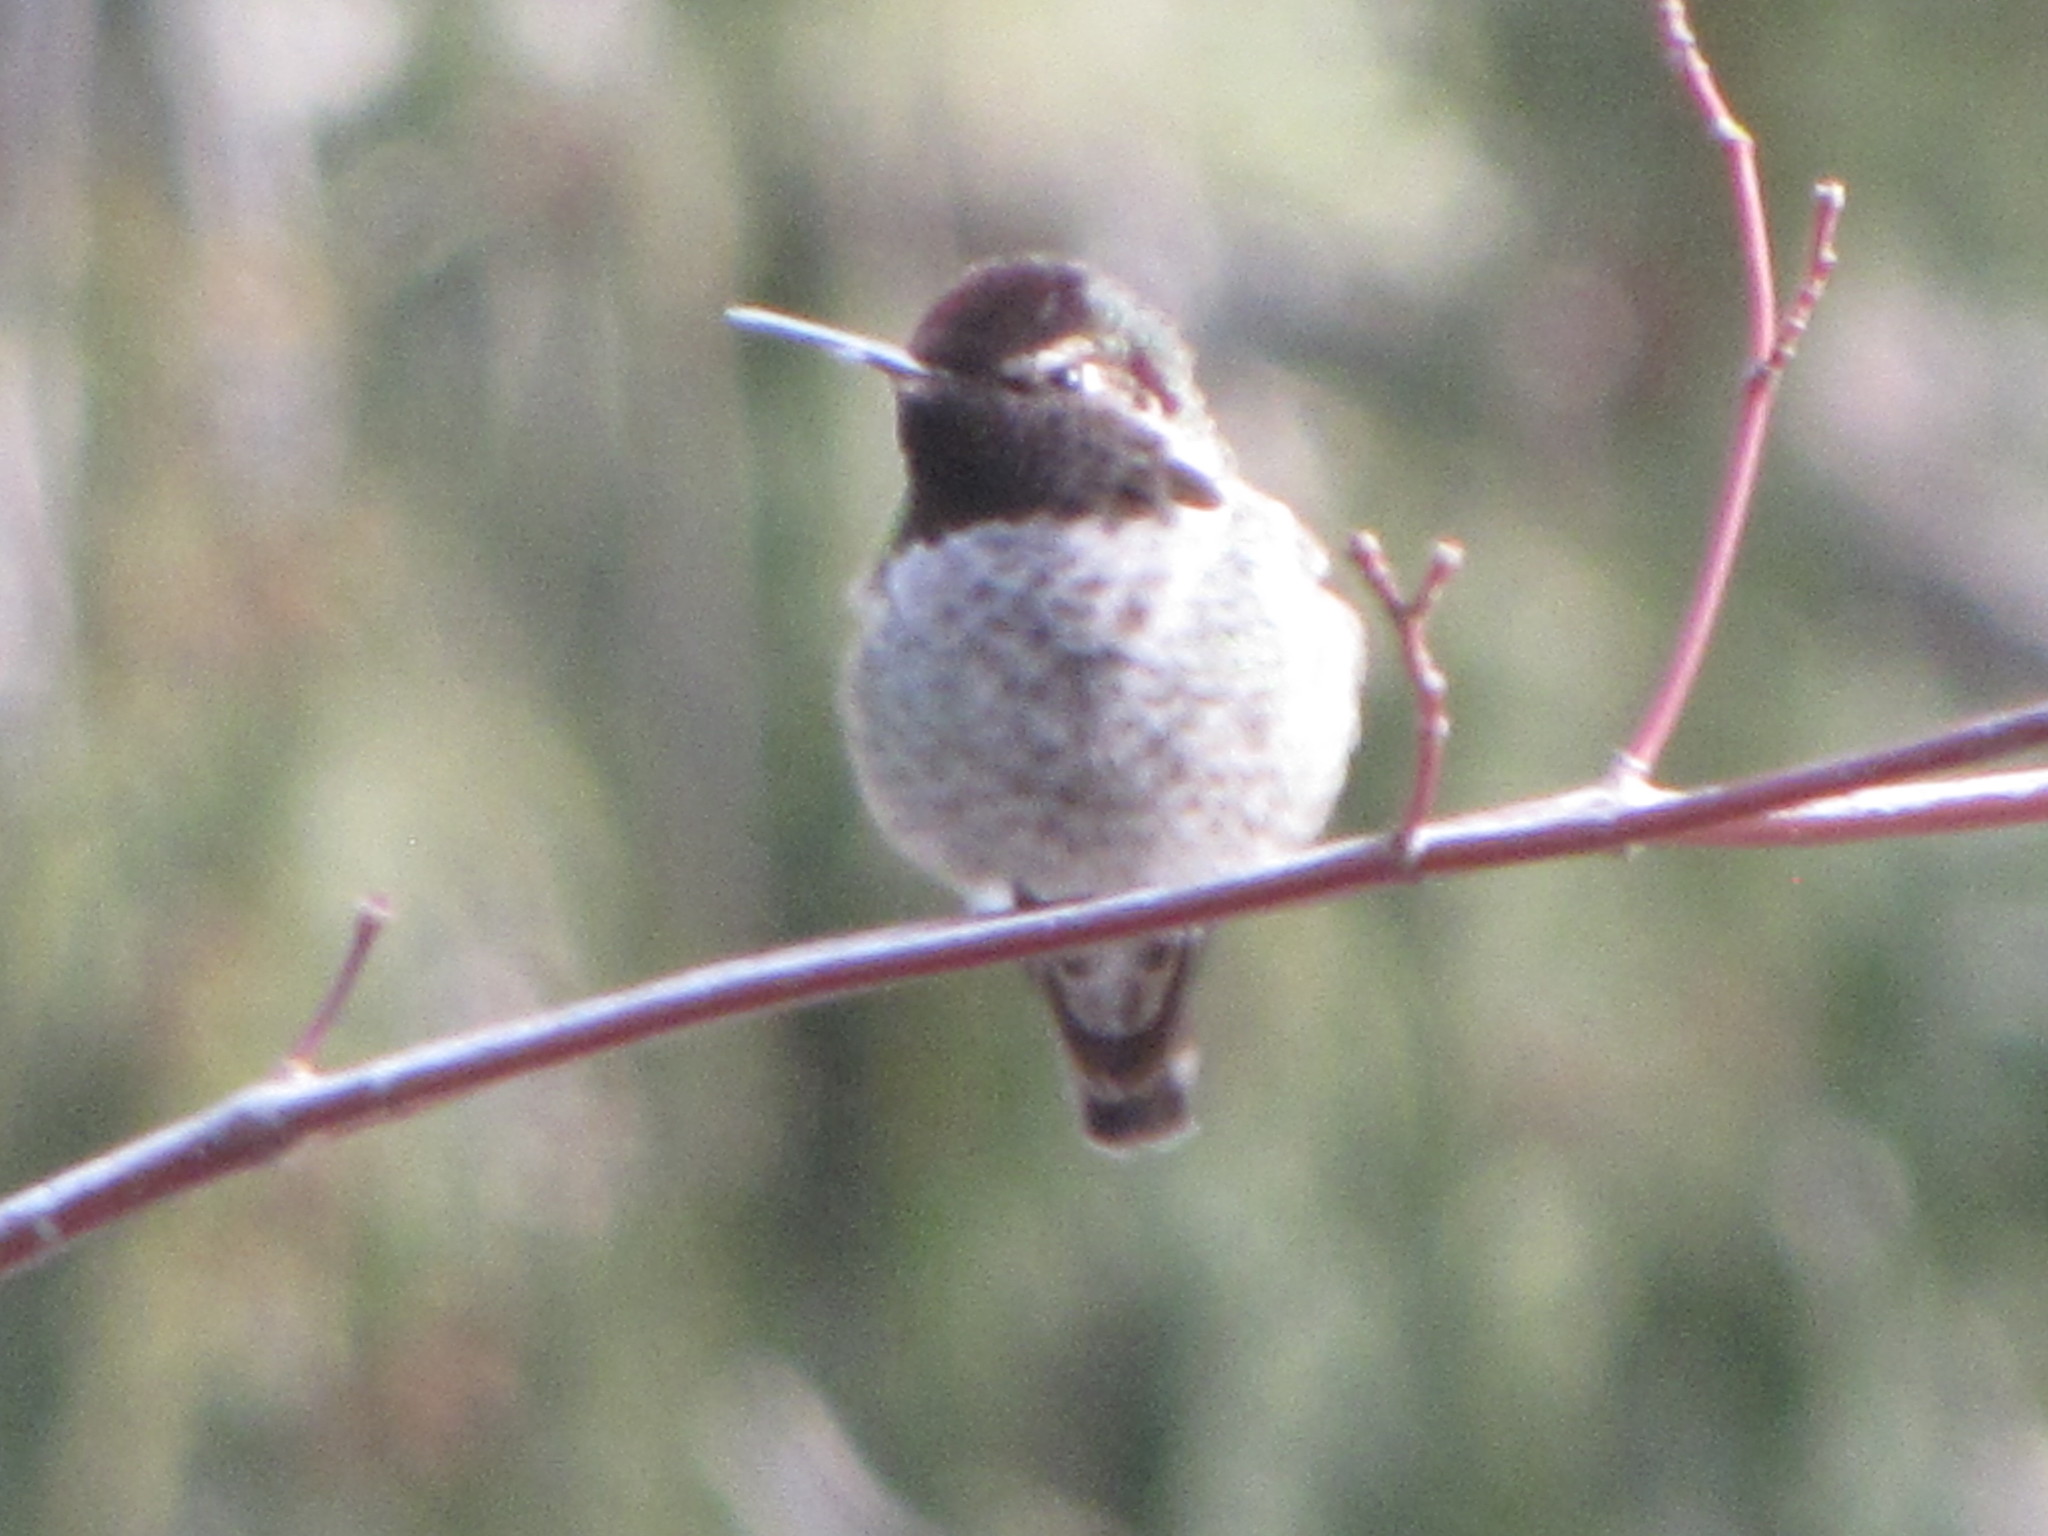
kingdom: Animalia
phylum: Chordata
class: Aves
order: Apodiformes
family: Trochilidae
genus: Calypte
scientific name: Calypte anna
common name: Anna's hummingbird
